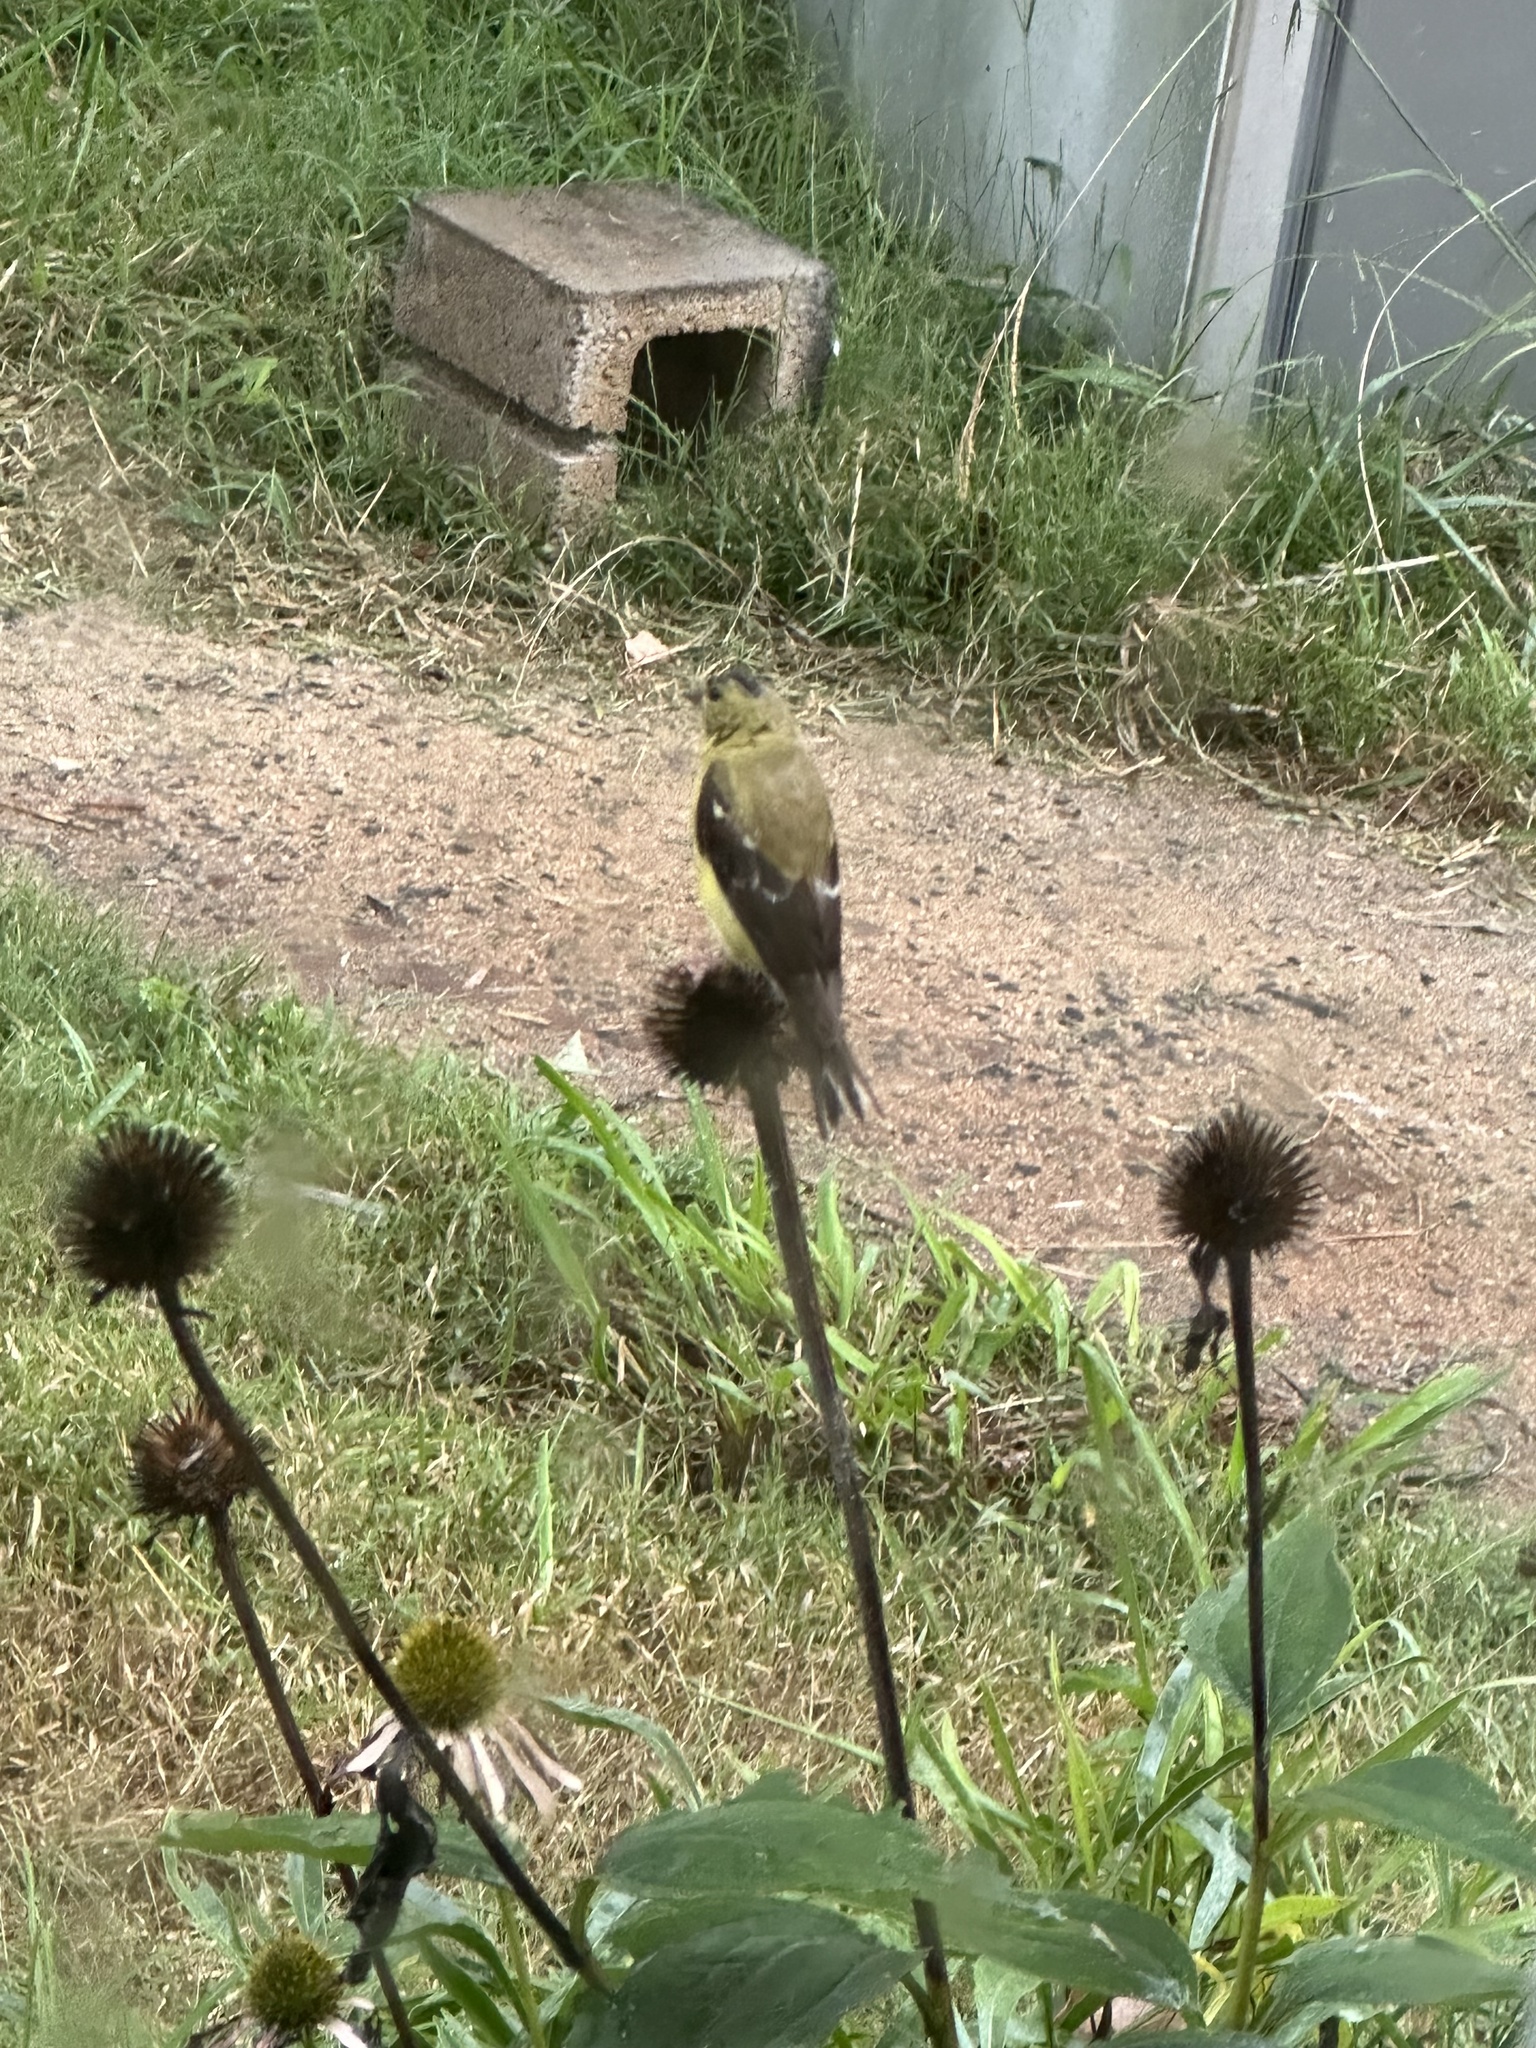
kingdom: Animalia
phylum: Chordata
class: Aves
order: Passeriformes
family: Fringillidae
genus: Spinus
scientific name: Spinus tristis
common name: American goldfinch
